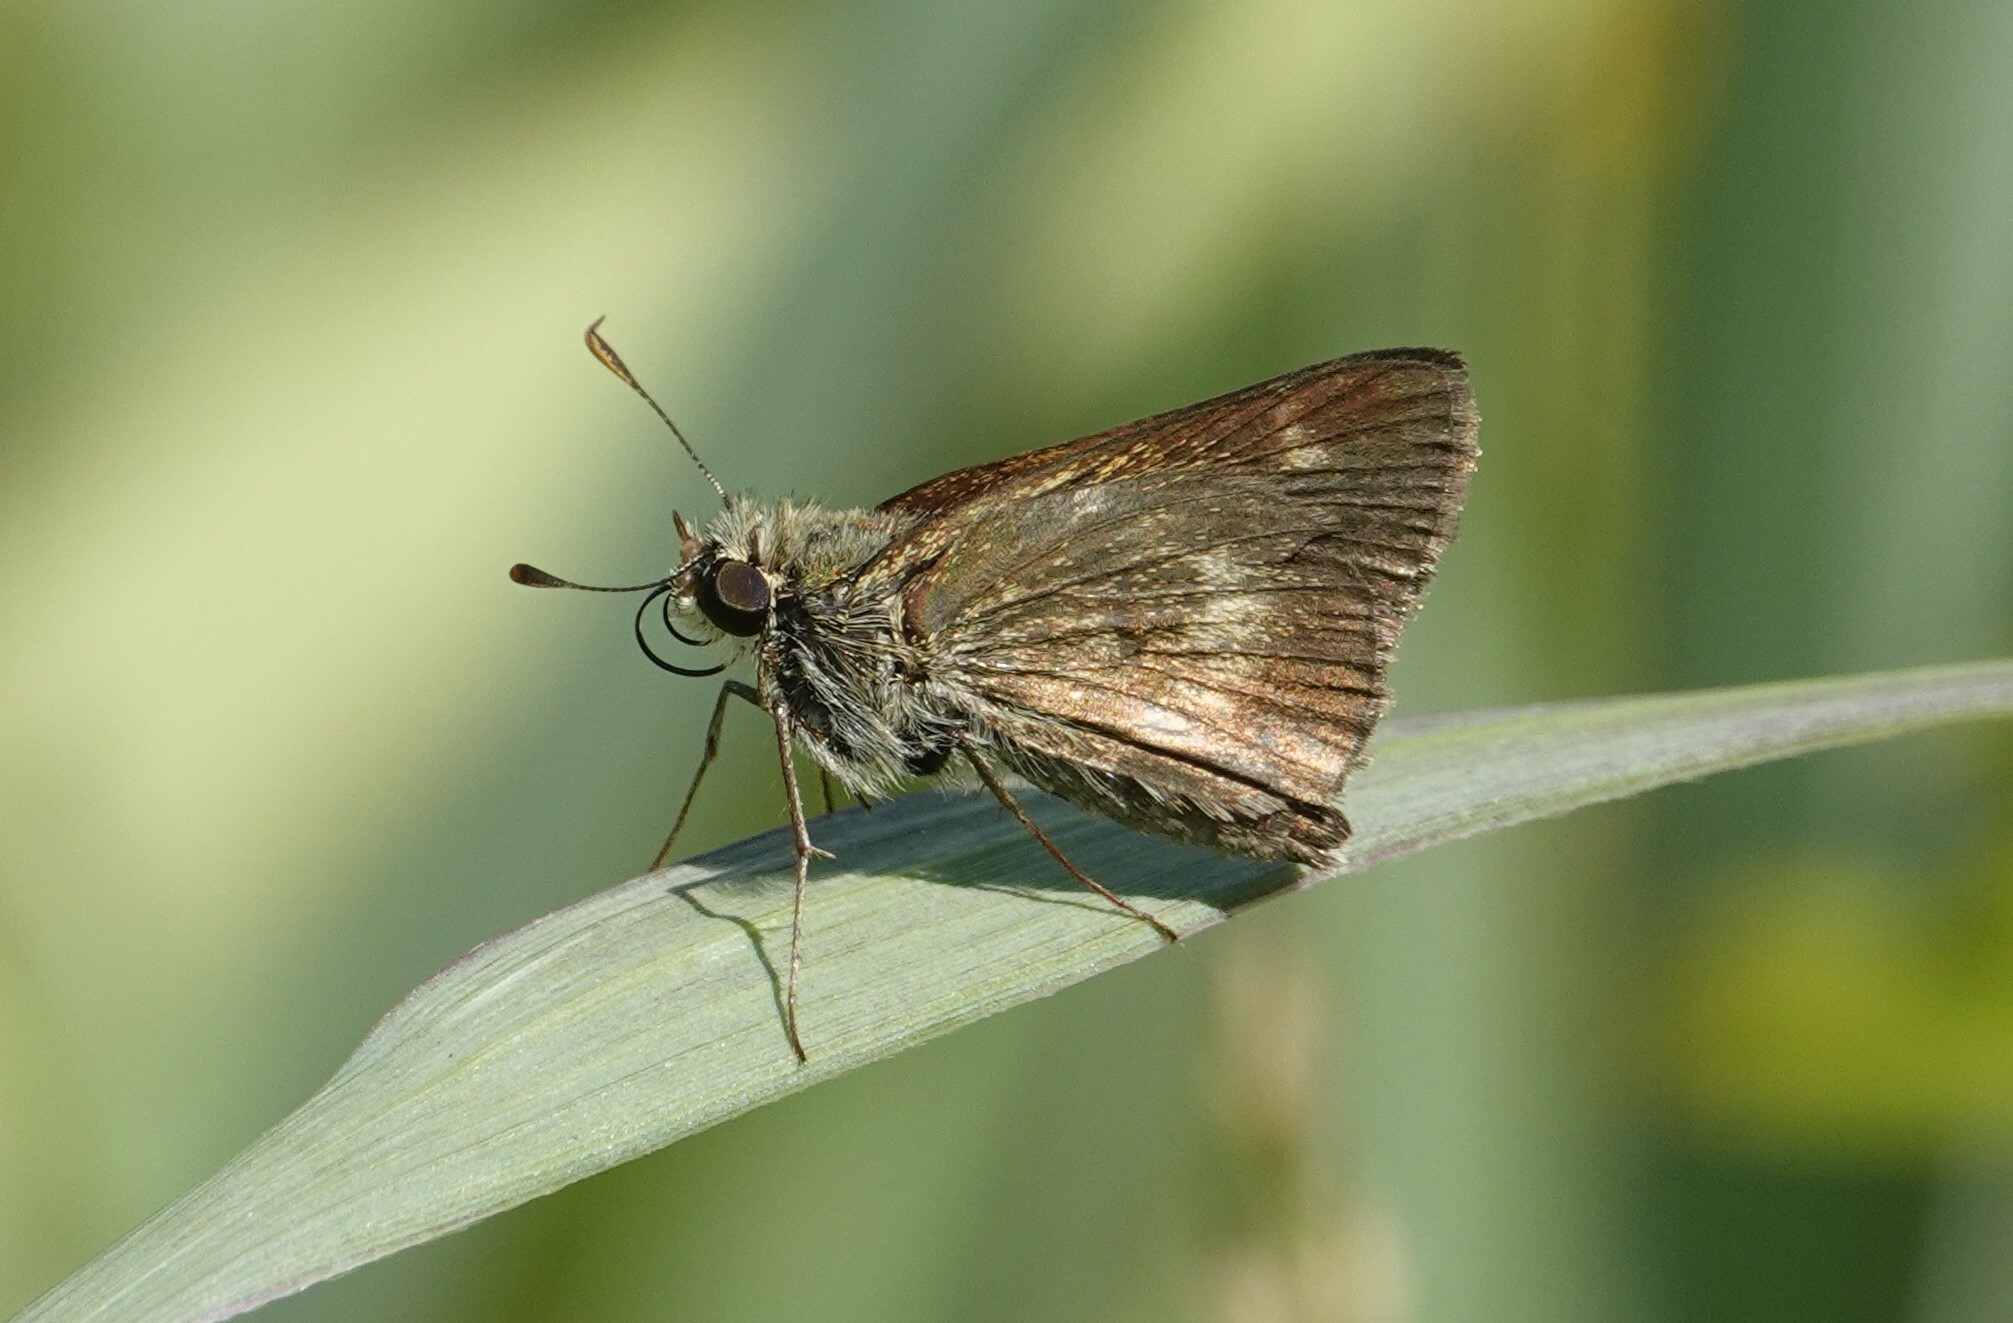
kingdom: Animalia
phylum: Arthropoda
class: Insecta
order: Lepidoptera
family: Hesperiidae
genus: Polites
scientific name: Polites egeremet
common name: Northern broken-dash
